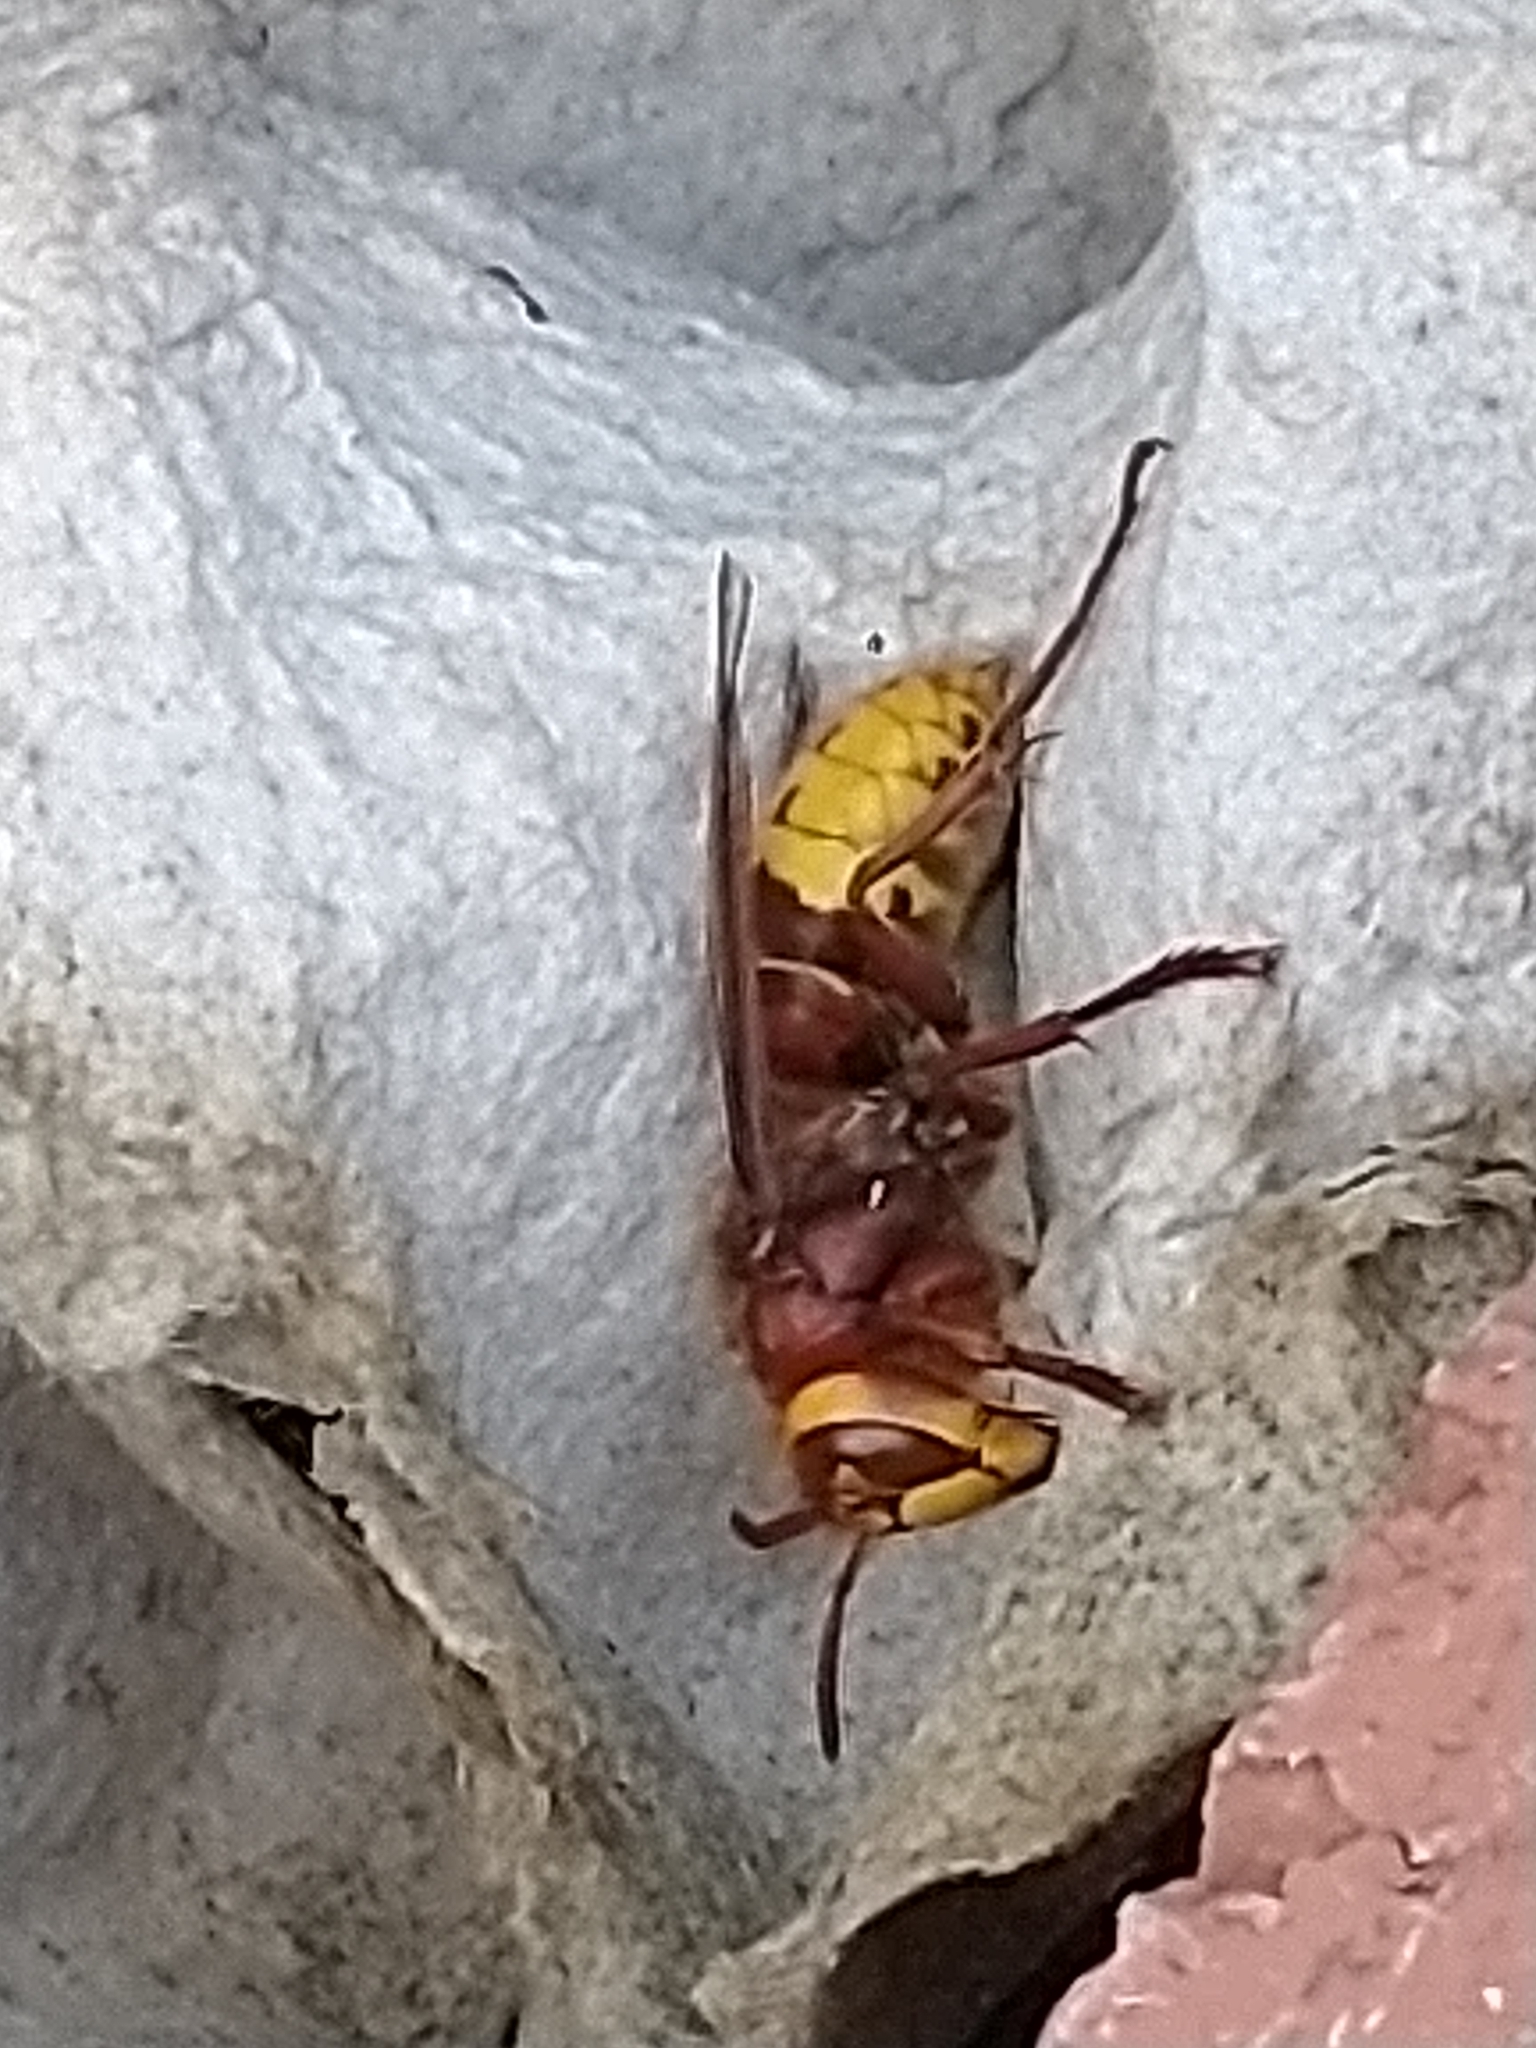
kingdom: Animalia
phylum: Arthropoda
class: Insecta
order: Hymenoptera
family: Vespidae
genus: Vespa
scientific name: Vespa crabro
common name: Hornet
